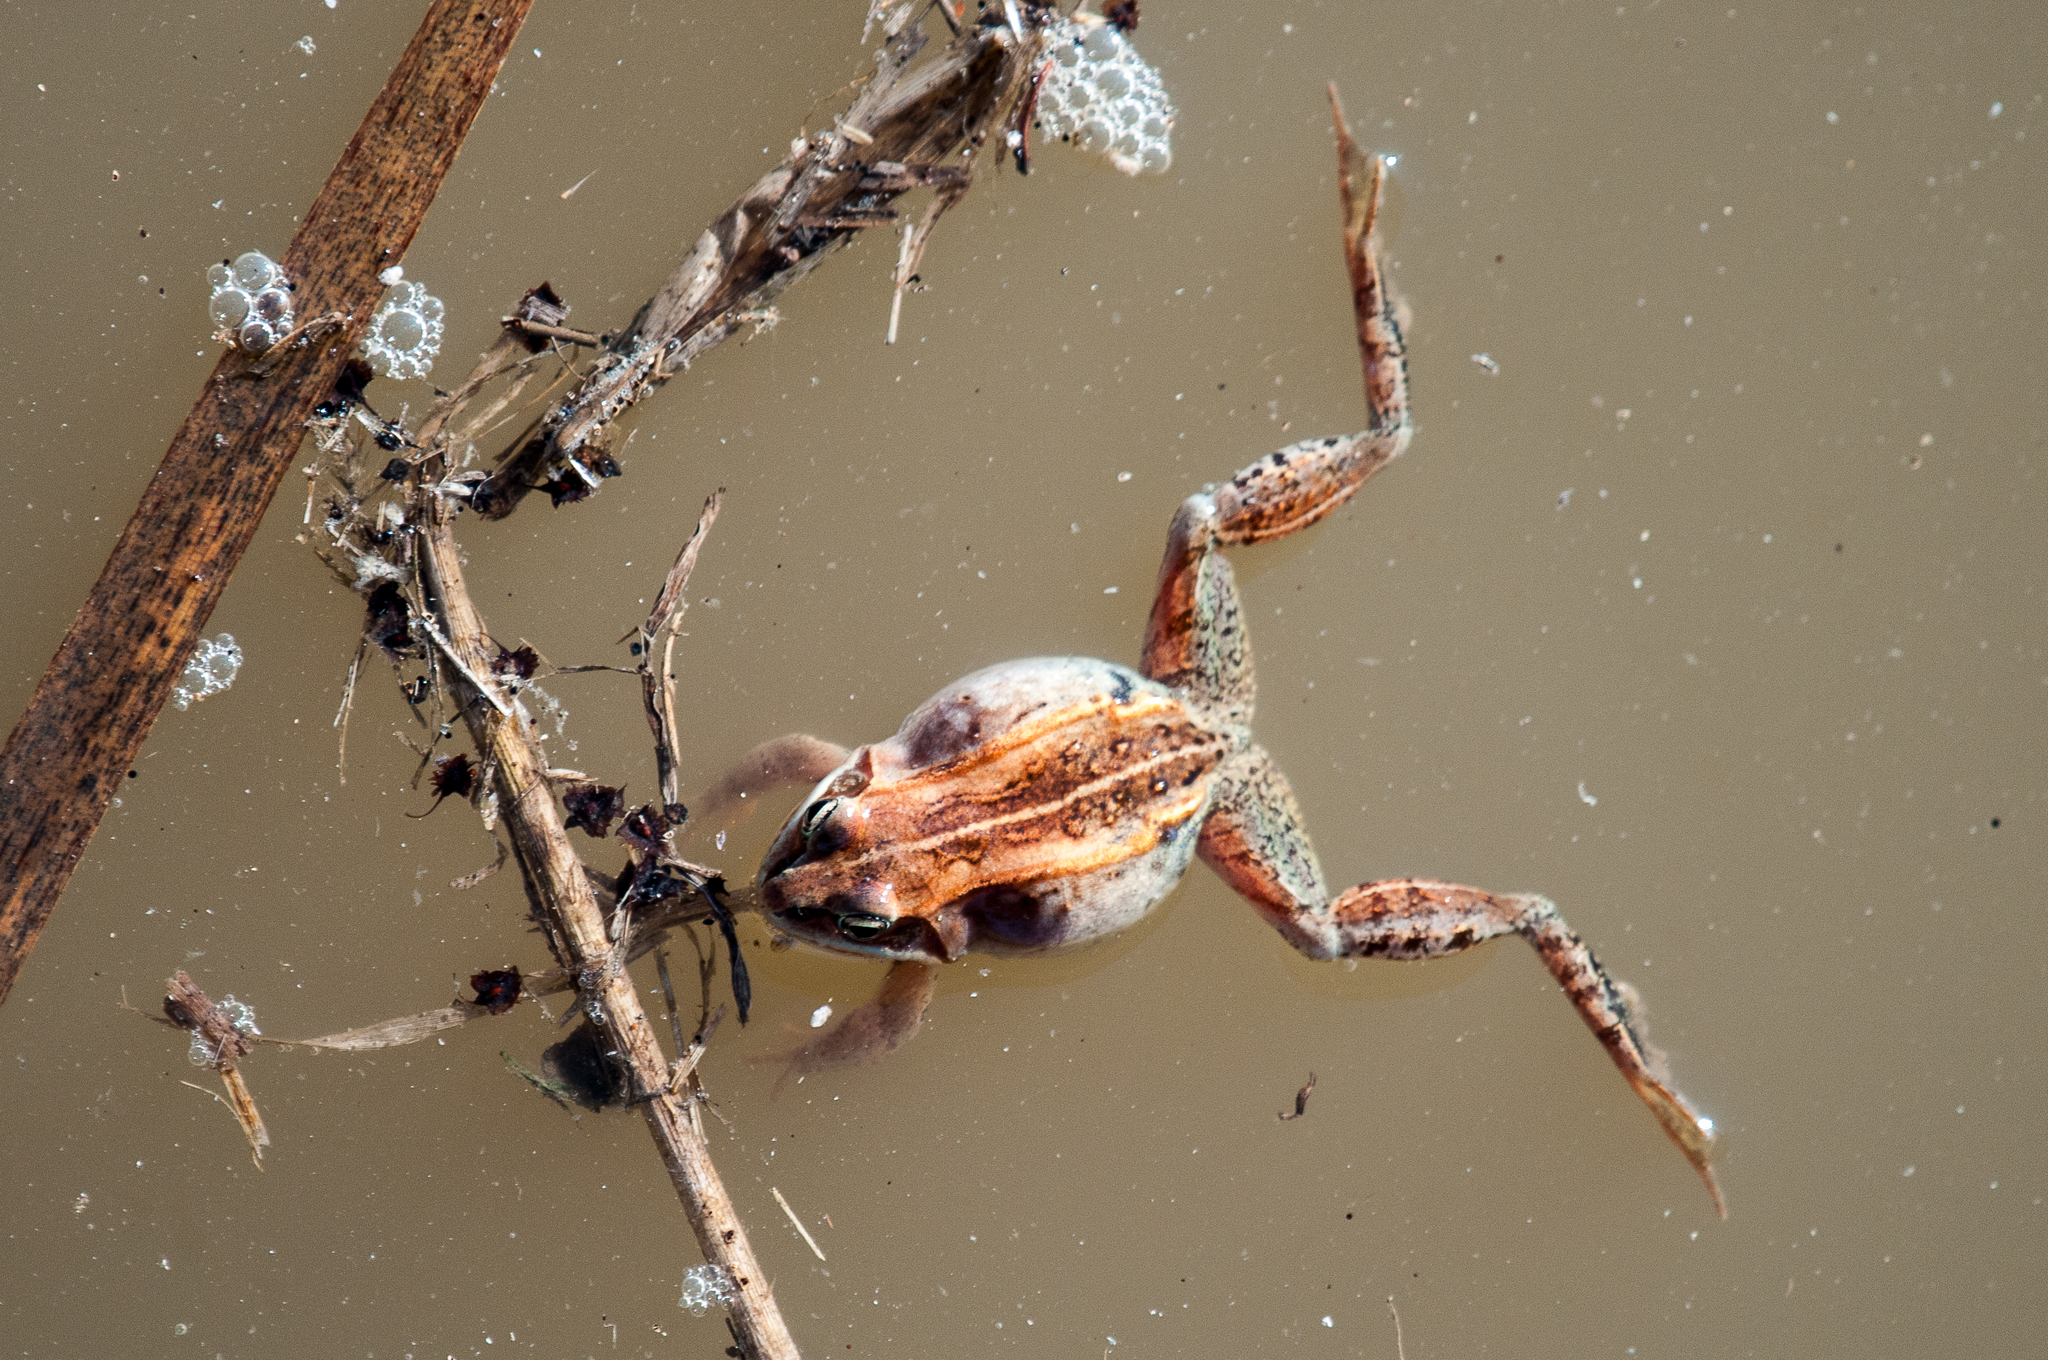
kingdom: Animalia
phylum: Chordata
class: Amphibia
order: Anura
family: Ranidae
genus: Lithobates
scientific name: Lithobates sylvaticus
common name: Wood frog
